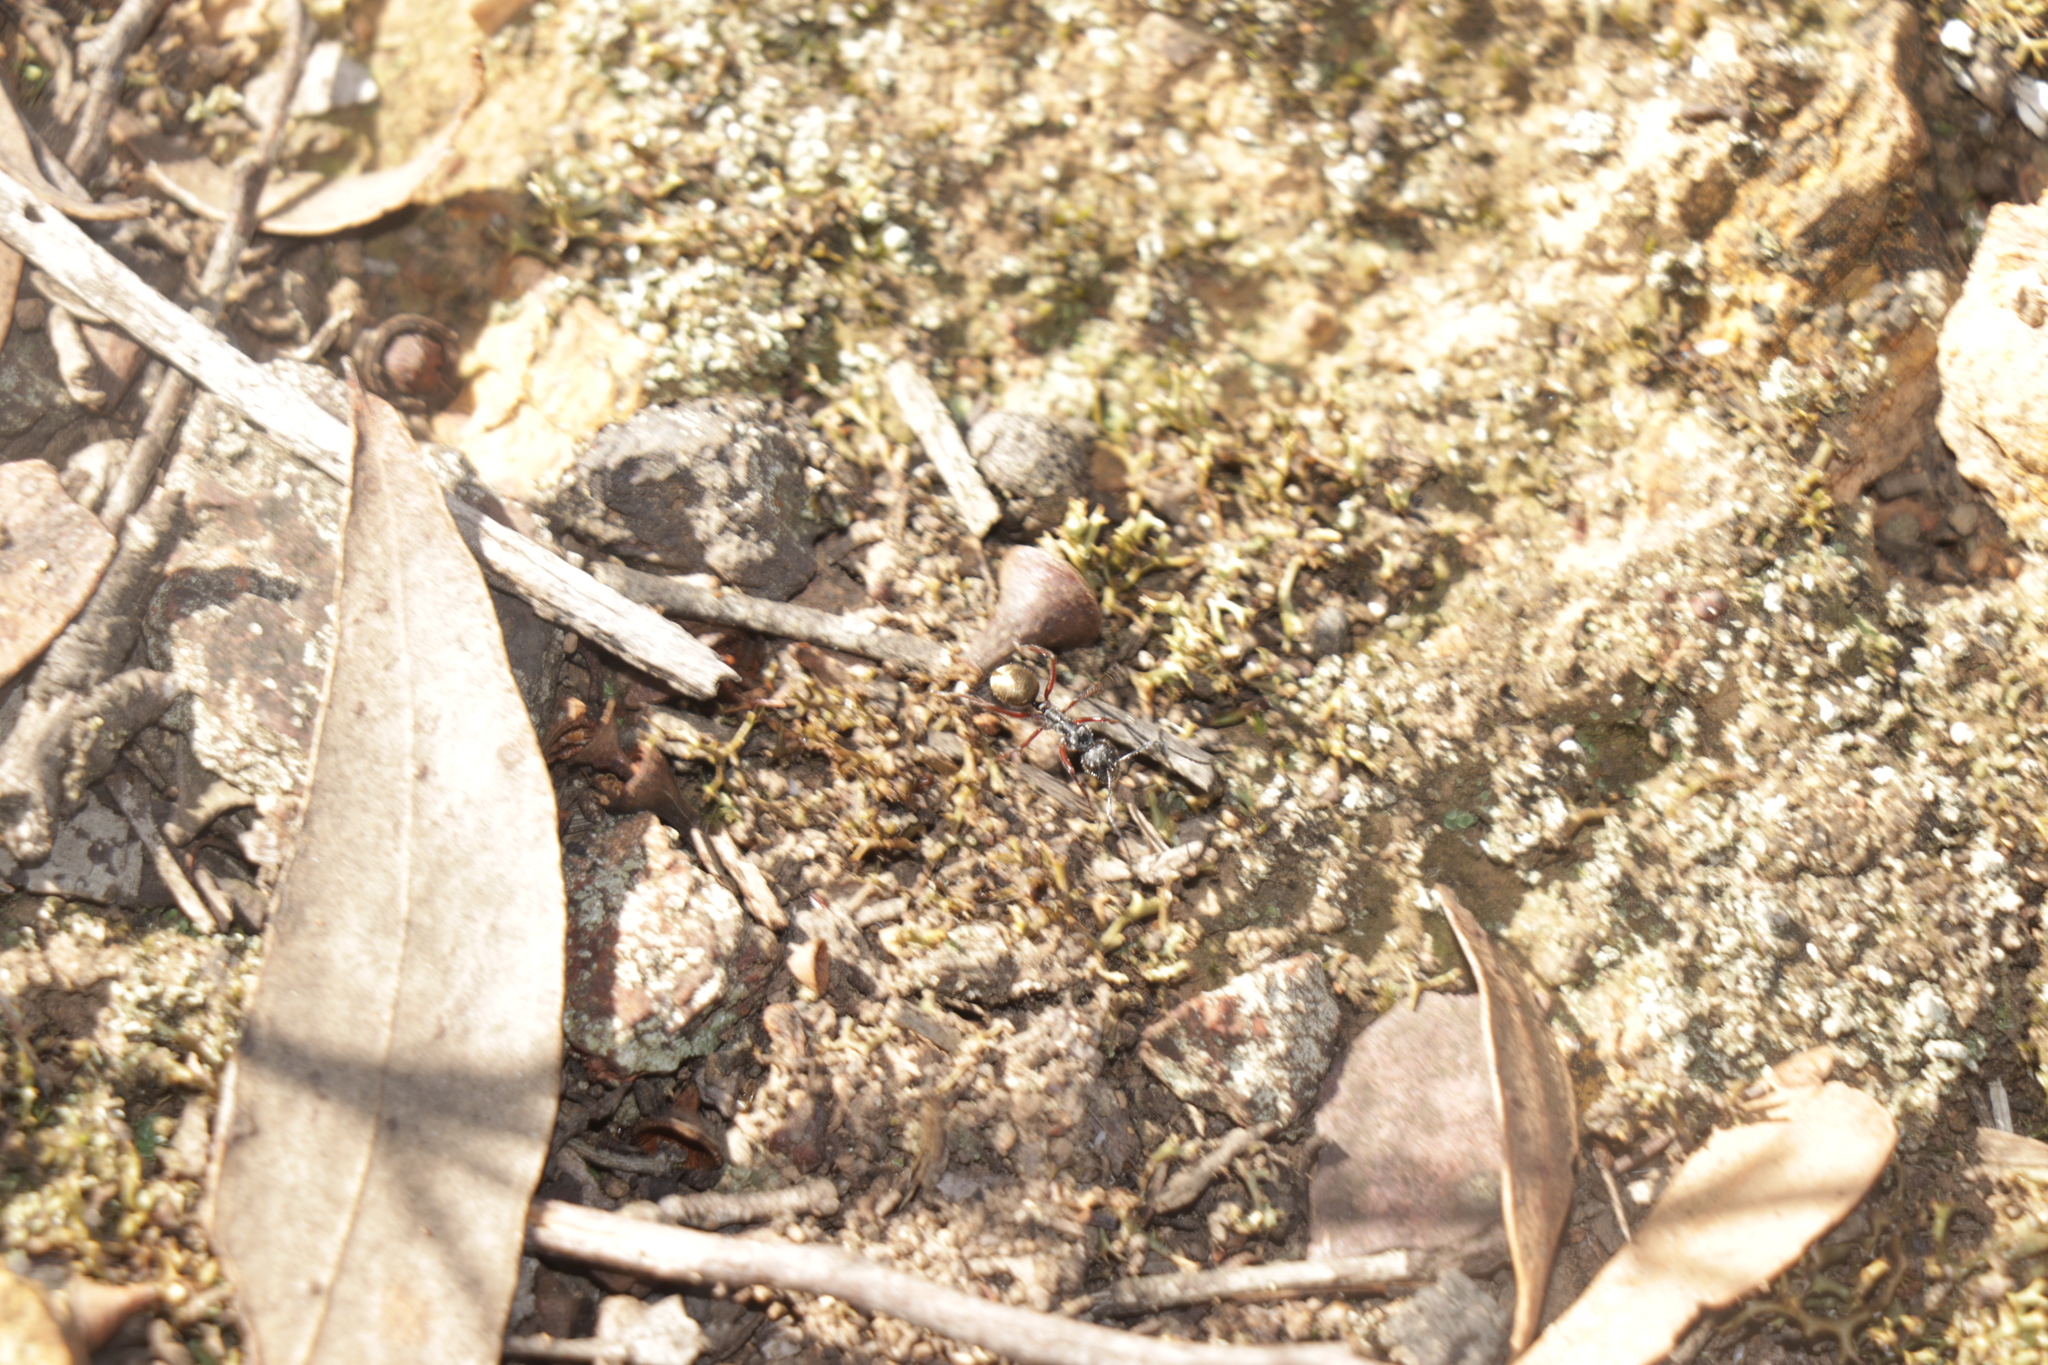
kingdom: Animalia
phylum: Arthropoda
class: Insecta
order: Hymenoptera
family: Formicidae
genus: Camponotus
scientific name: Camponotus suffusus
